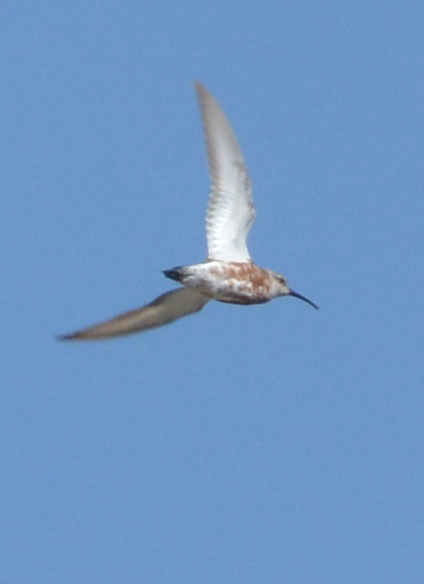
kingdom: Animalia
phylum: Chordata
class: Aves
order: Charadriiformes
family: Scolopacidae
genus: Calidris
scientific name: Calidris ferruginea
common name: Curlew sandpiper
